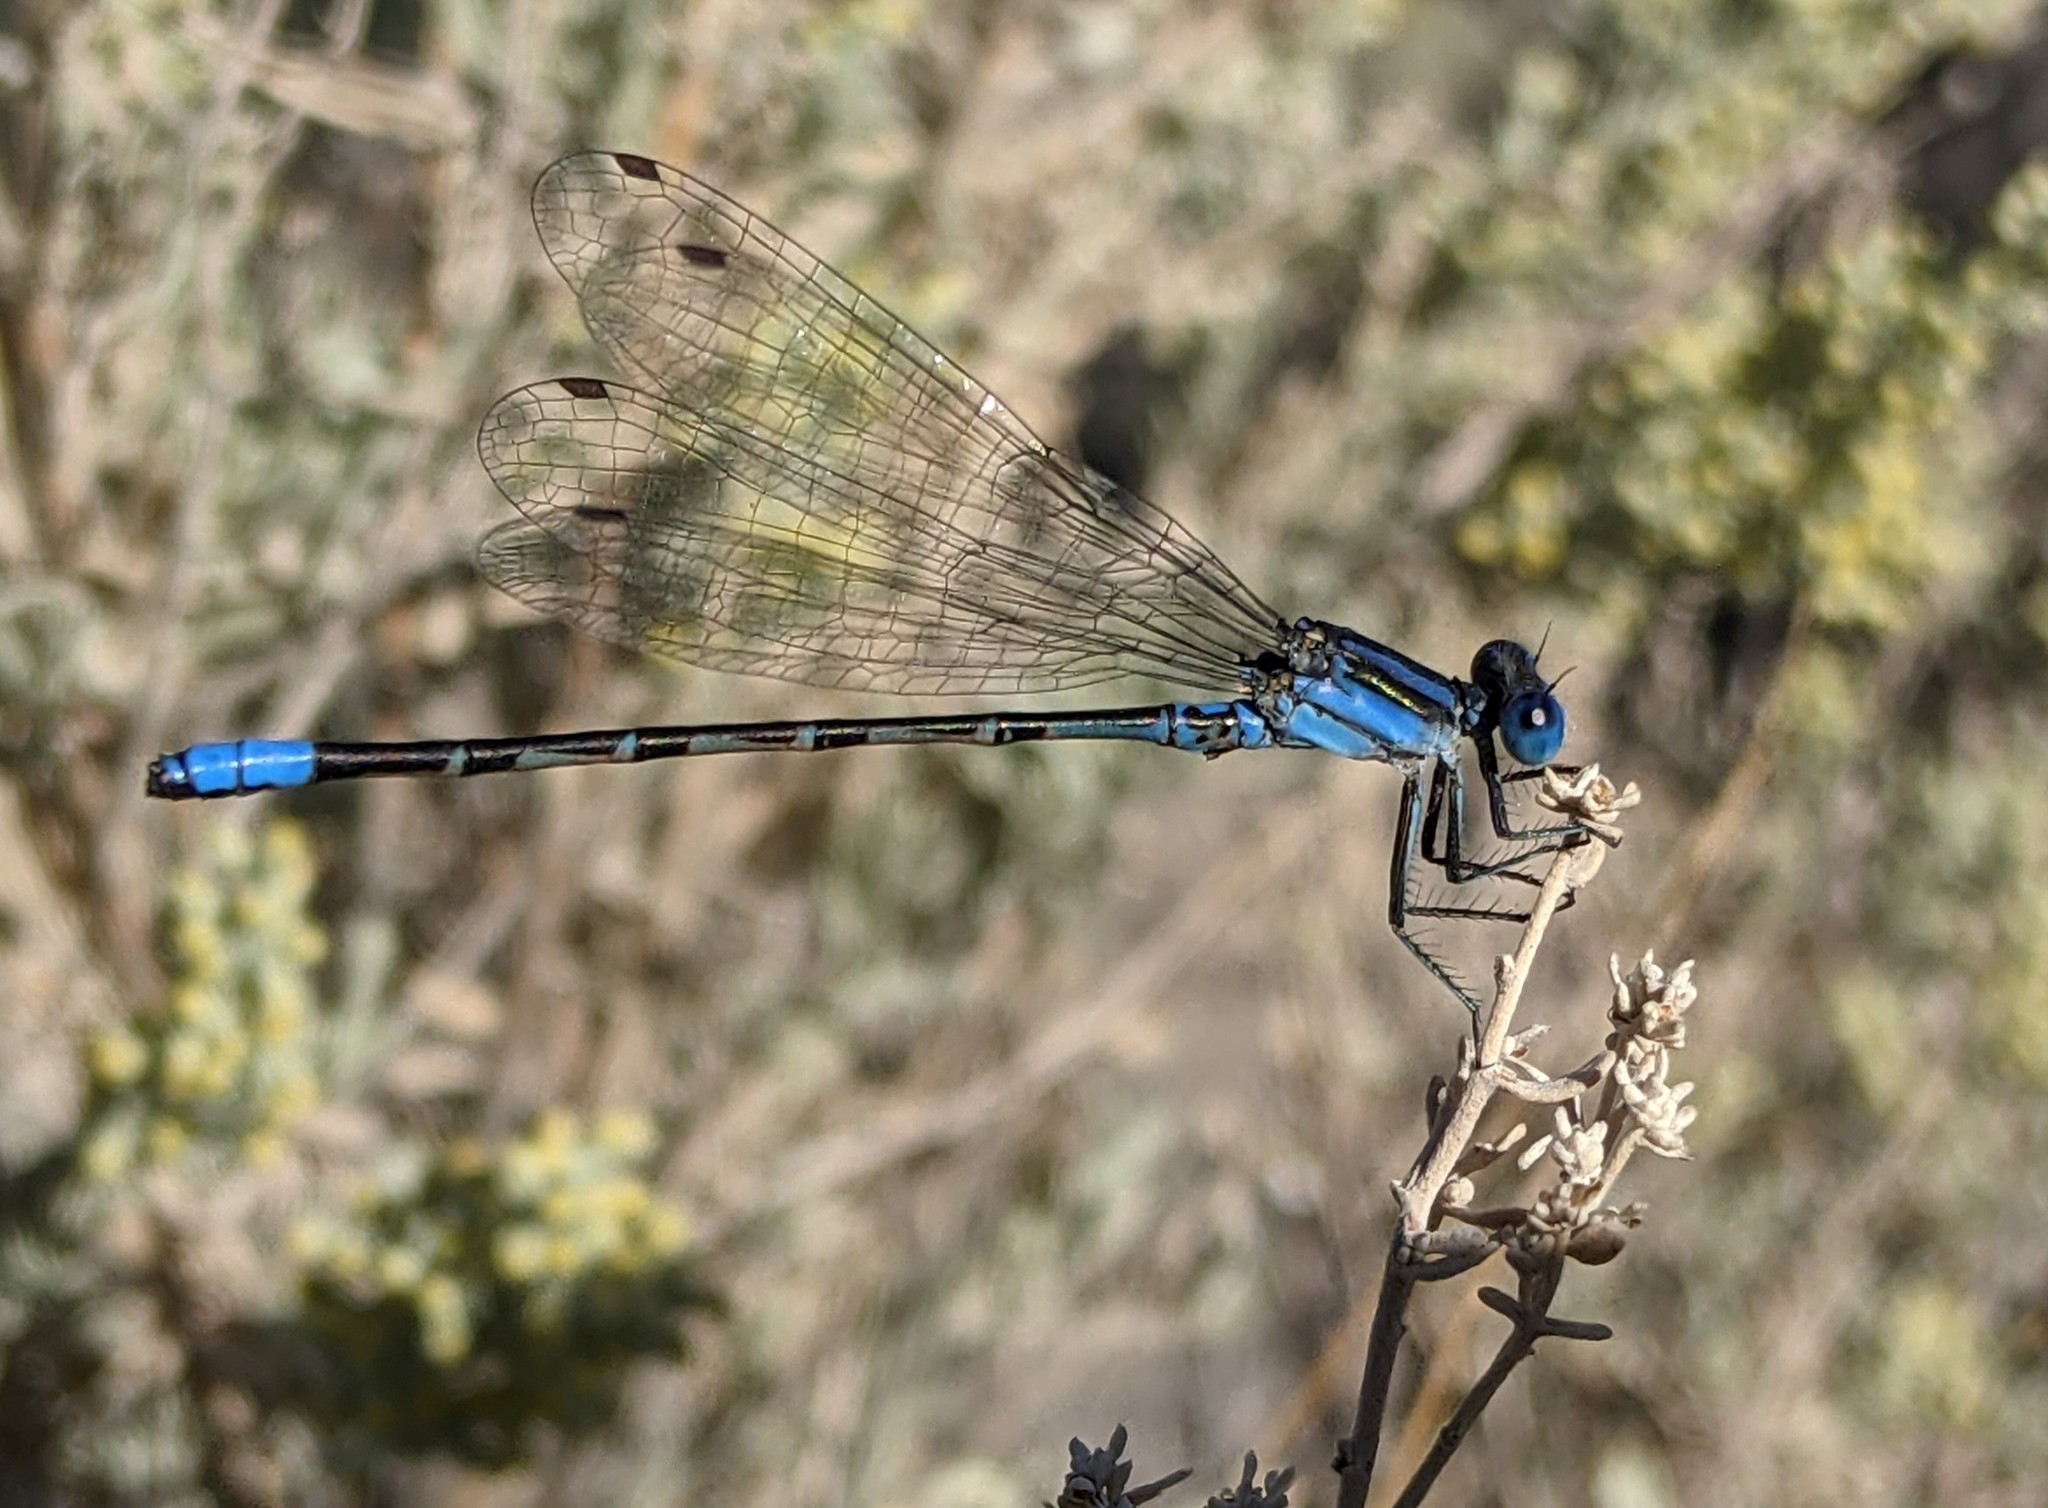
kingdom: Animalia
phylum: Arthropoda
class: Insecta
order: Odonata
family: Coenagrionidae
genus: Argia
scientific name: Argia alberta
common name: Paiute dancer
